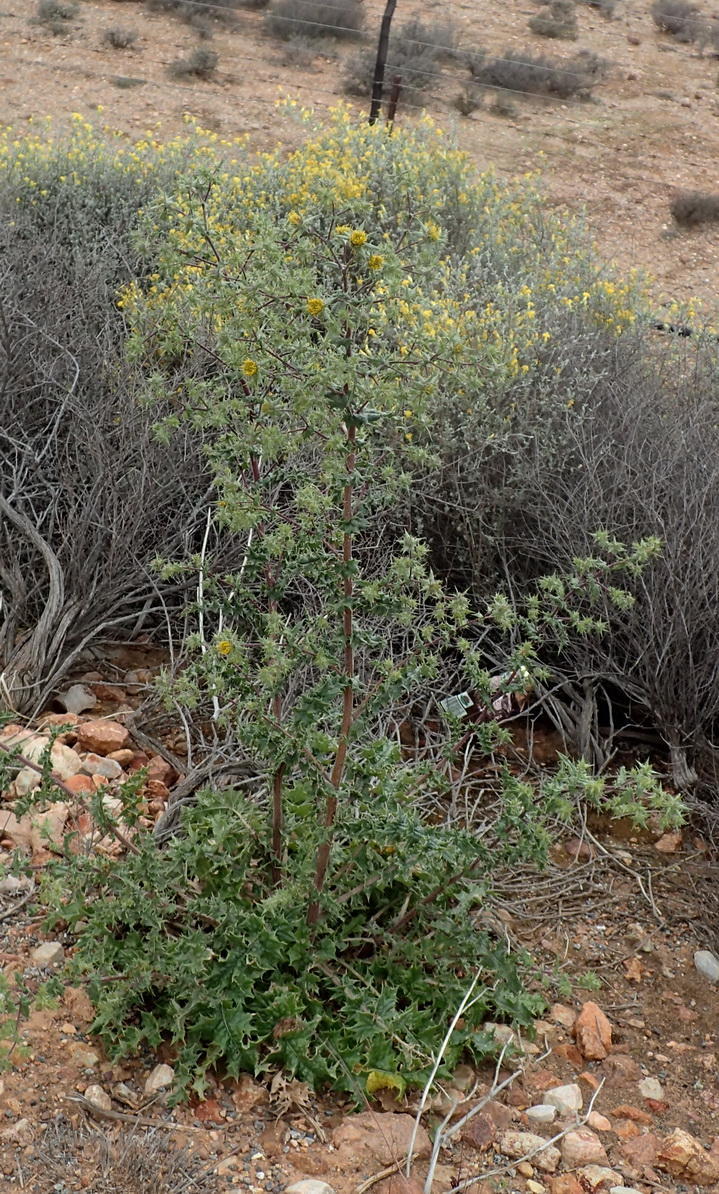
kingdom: Plantae
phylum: Tracheophyta
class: Magnoliopsida
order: Asterales
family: Asteraceae
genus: Berkheya
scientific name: Berkheya onobromoides
